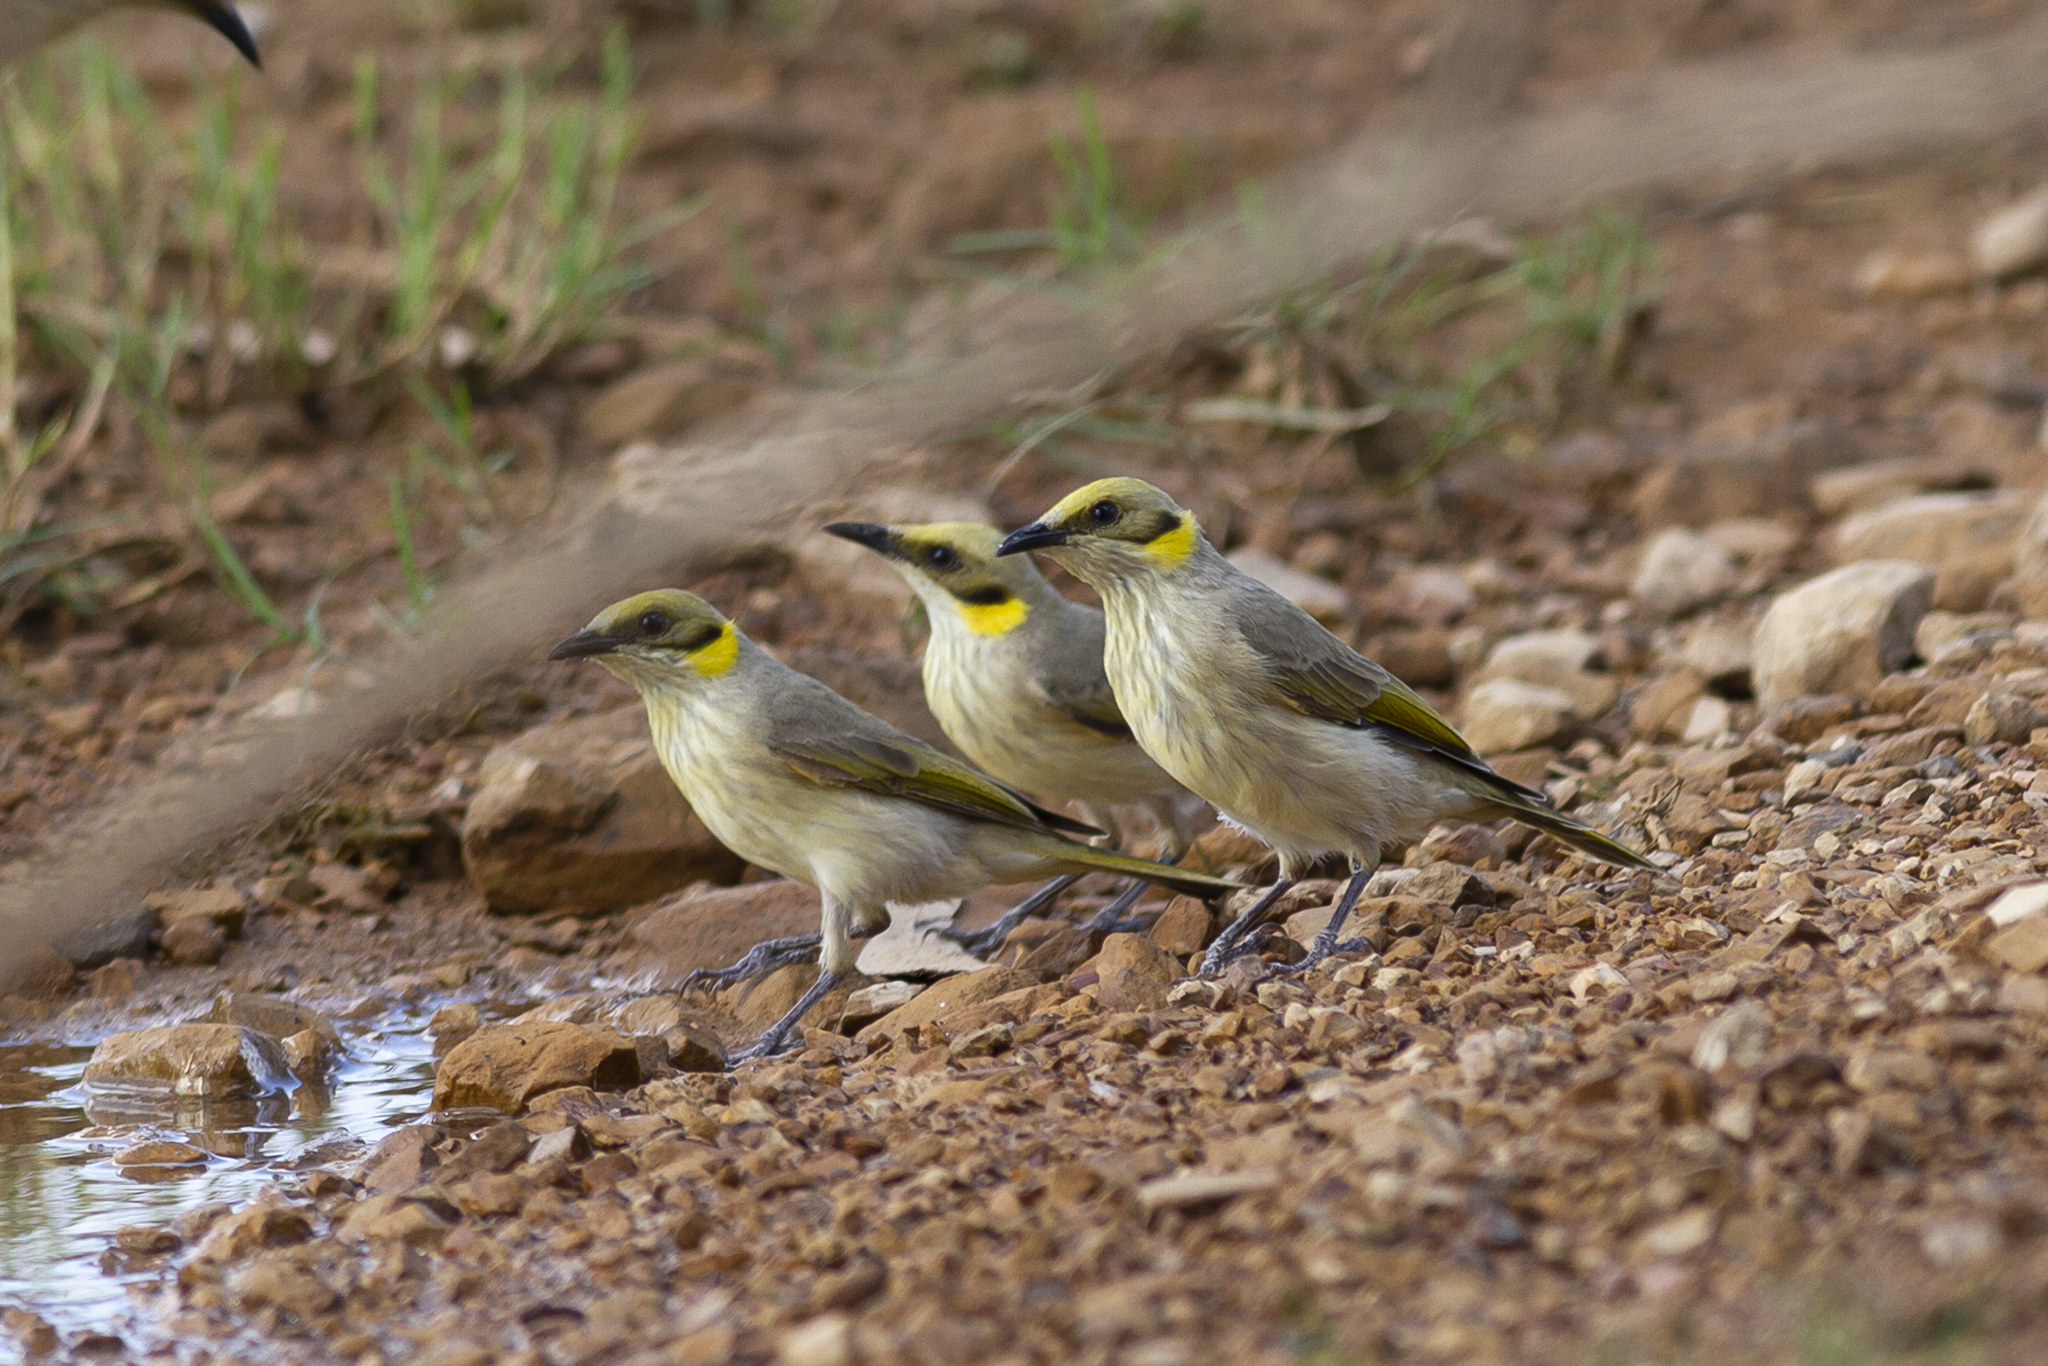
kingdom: Animalia
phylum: Chordata
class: Aves
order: Passeriformes
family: Meliphagidae
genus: Ptilotula
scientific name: Ptilotula plumula
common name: Grey-fronted honeyeater
